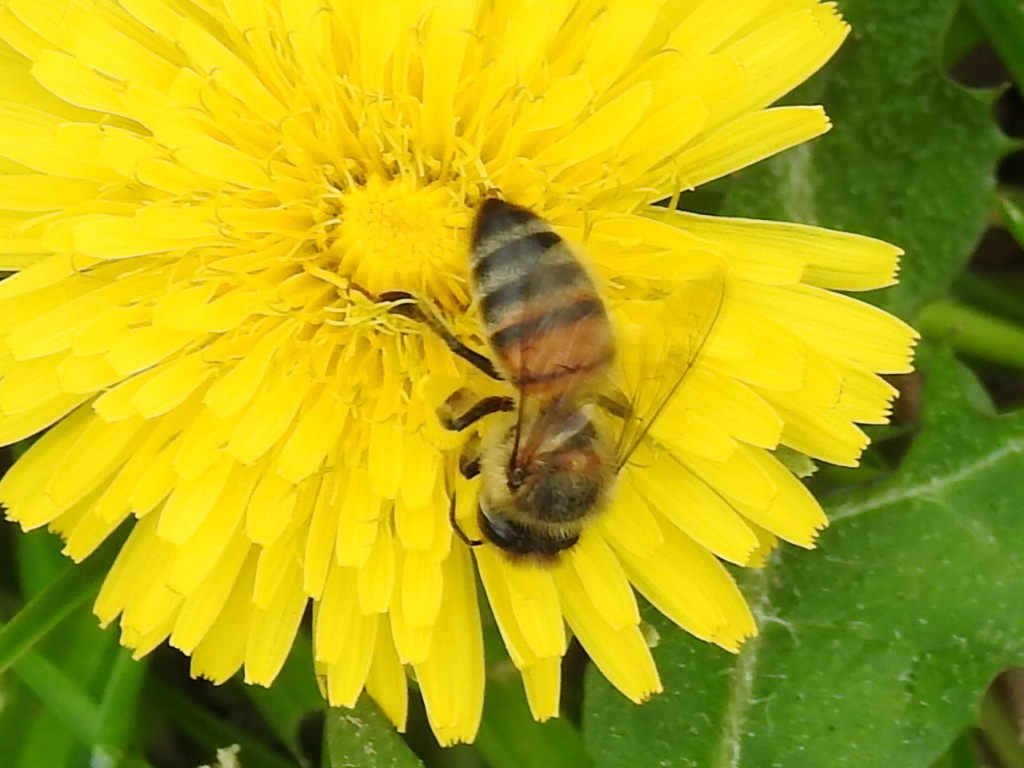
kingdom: Animalia
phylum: Arthropoda
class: Insecta
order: Hymenoptera
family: Apidae
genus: Apis
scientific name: Apis mellifera
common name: Honey bee
